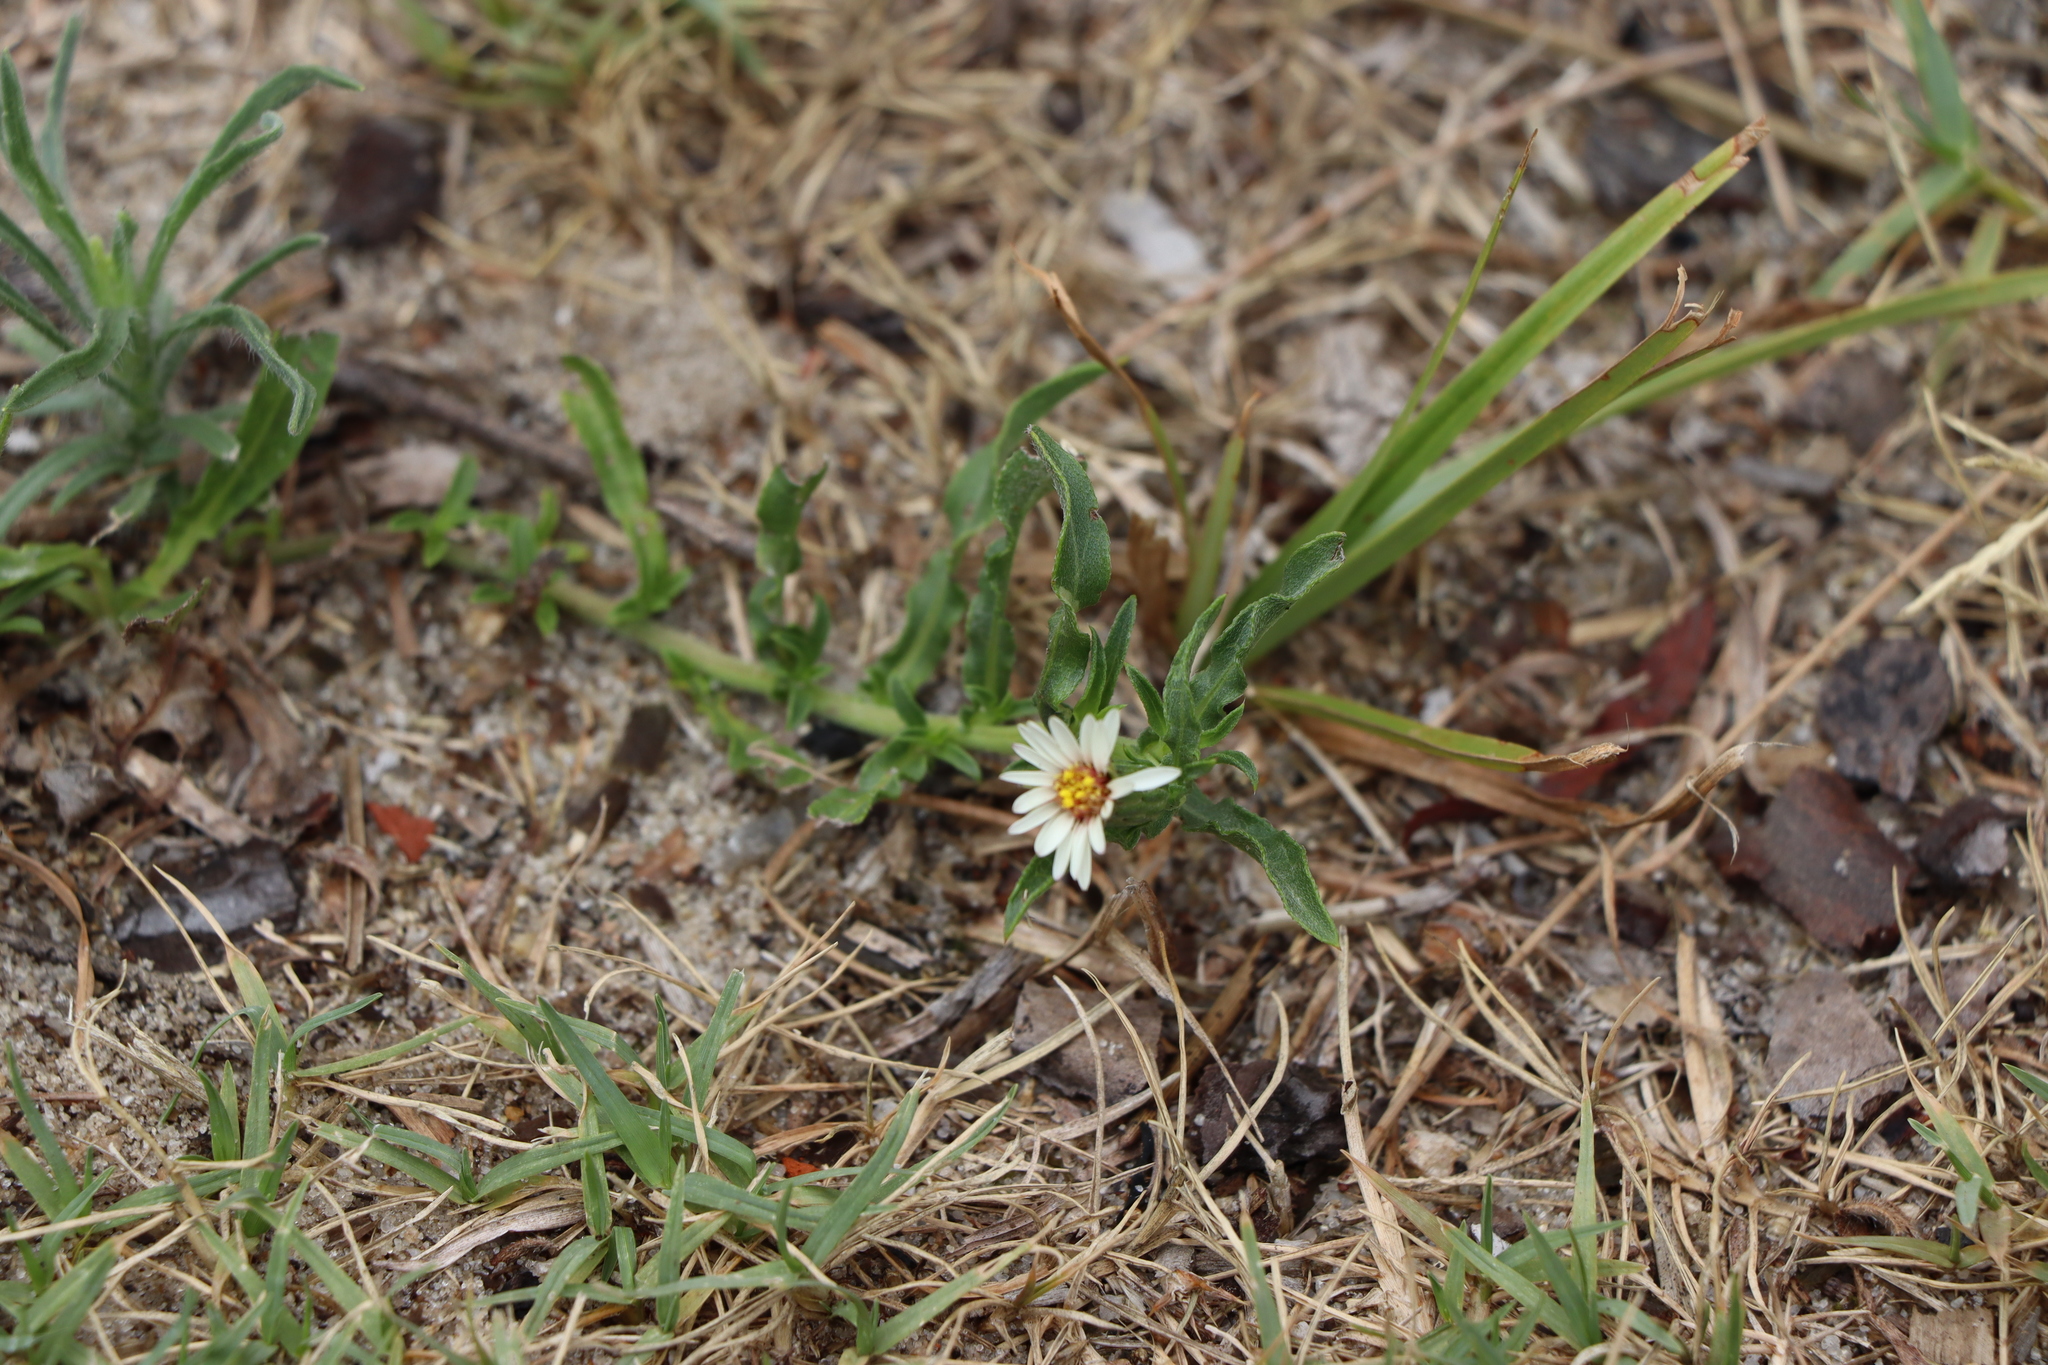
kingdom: Plantae
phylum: Tracheophyta
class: Magnoliopsida
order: Asterales
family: Asteraceae
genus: Noticastrum
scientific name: Noticastrum diffusum
